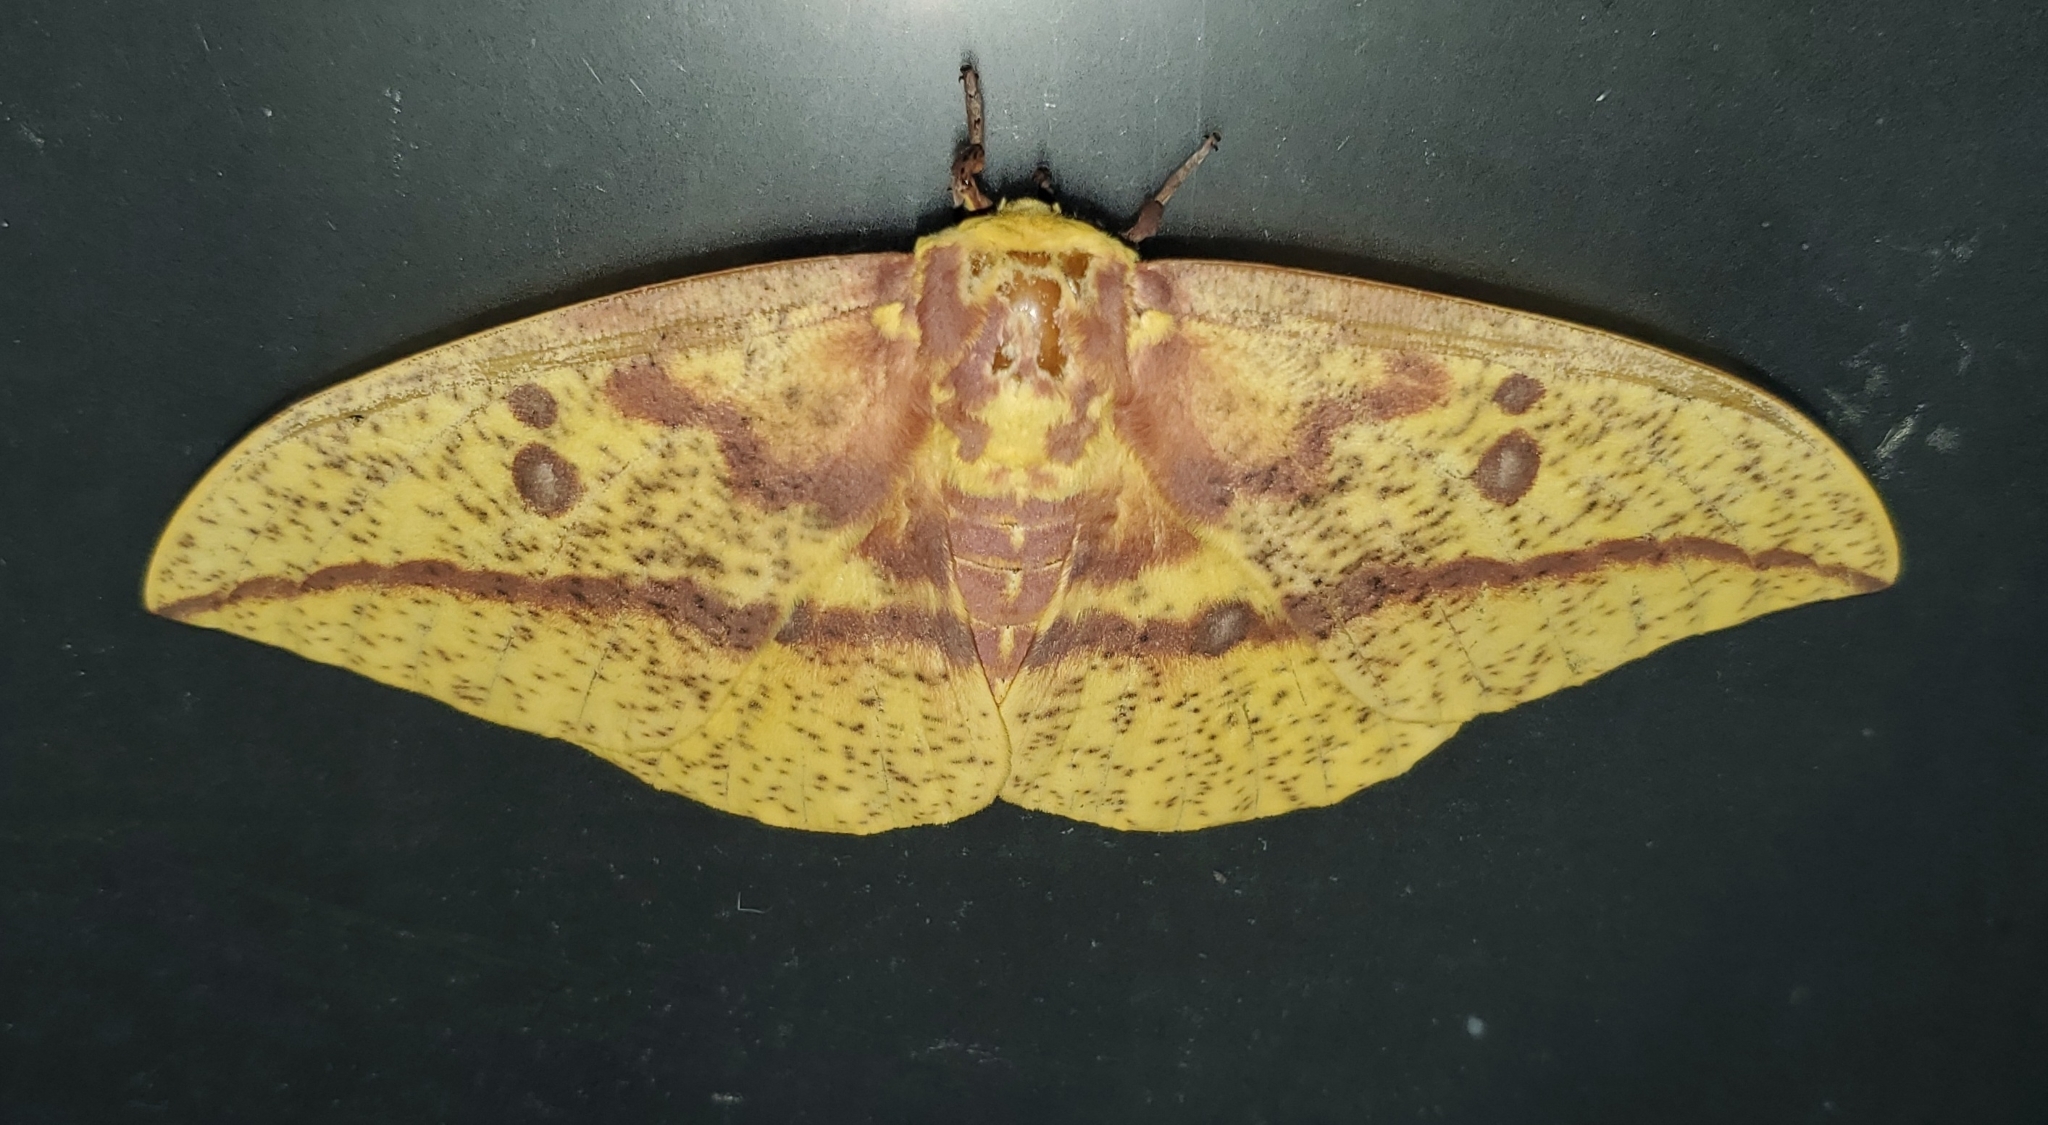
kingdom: Animalia
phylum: Arthropoda
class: Insecta
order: Lepidoptera
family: Saturniidae
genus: Eacles
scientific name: Eacles imperialis
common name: Imperial moth
